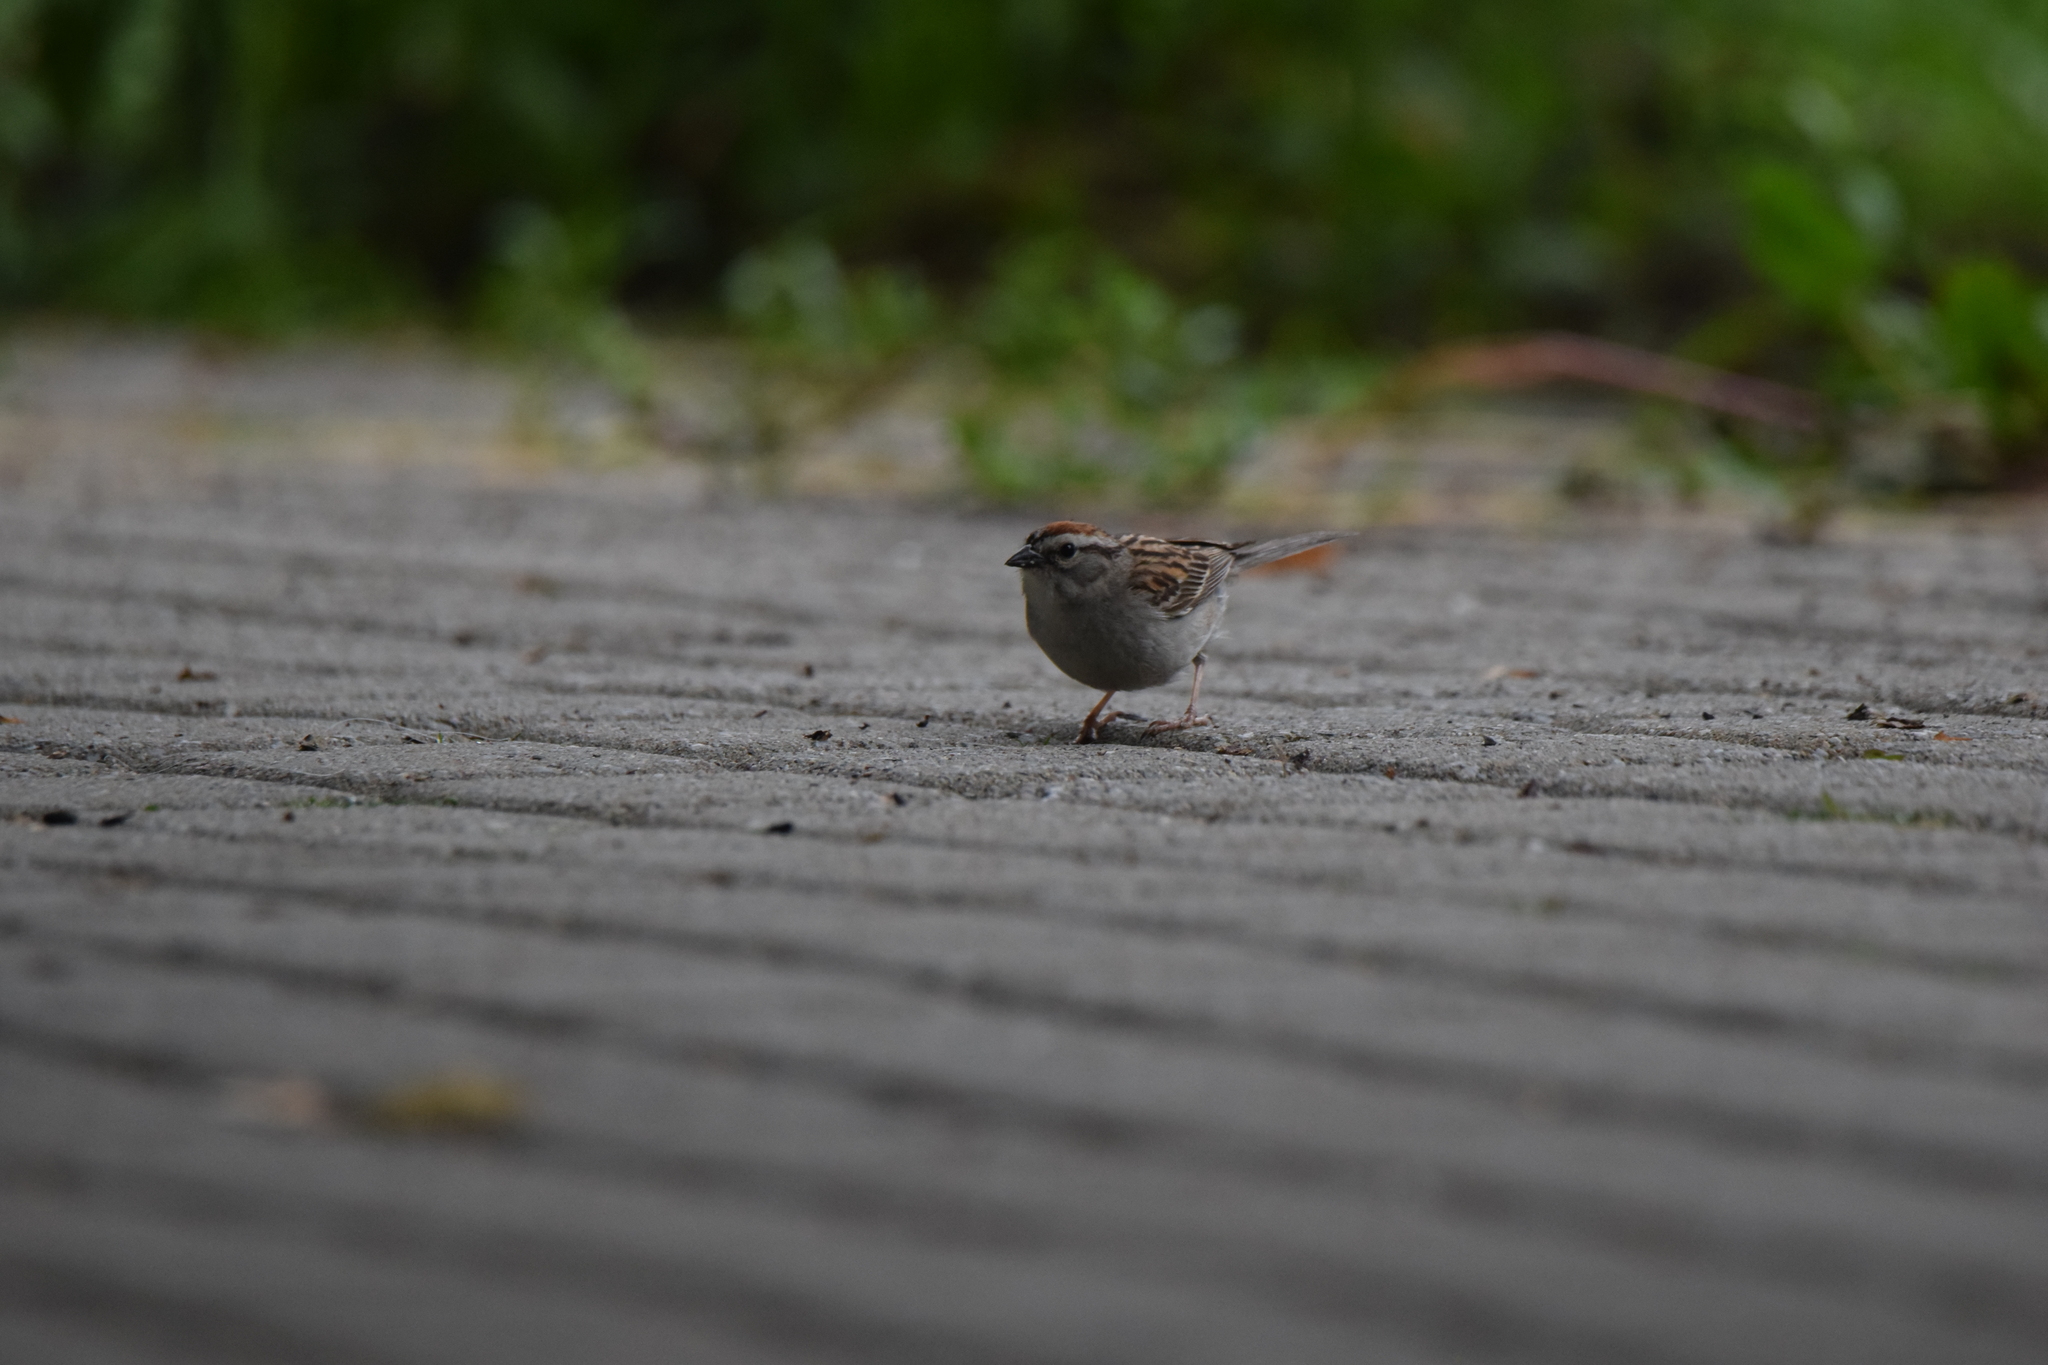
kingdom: Animalia
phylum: Chordata
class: Aves
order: Passeriformes
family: Passerellidae
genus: Spizella
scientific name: Spizella passerina
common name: Chipping sparrow
